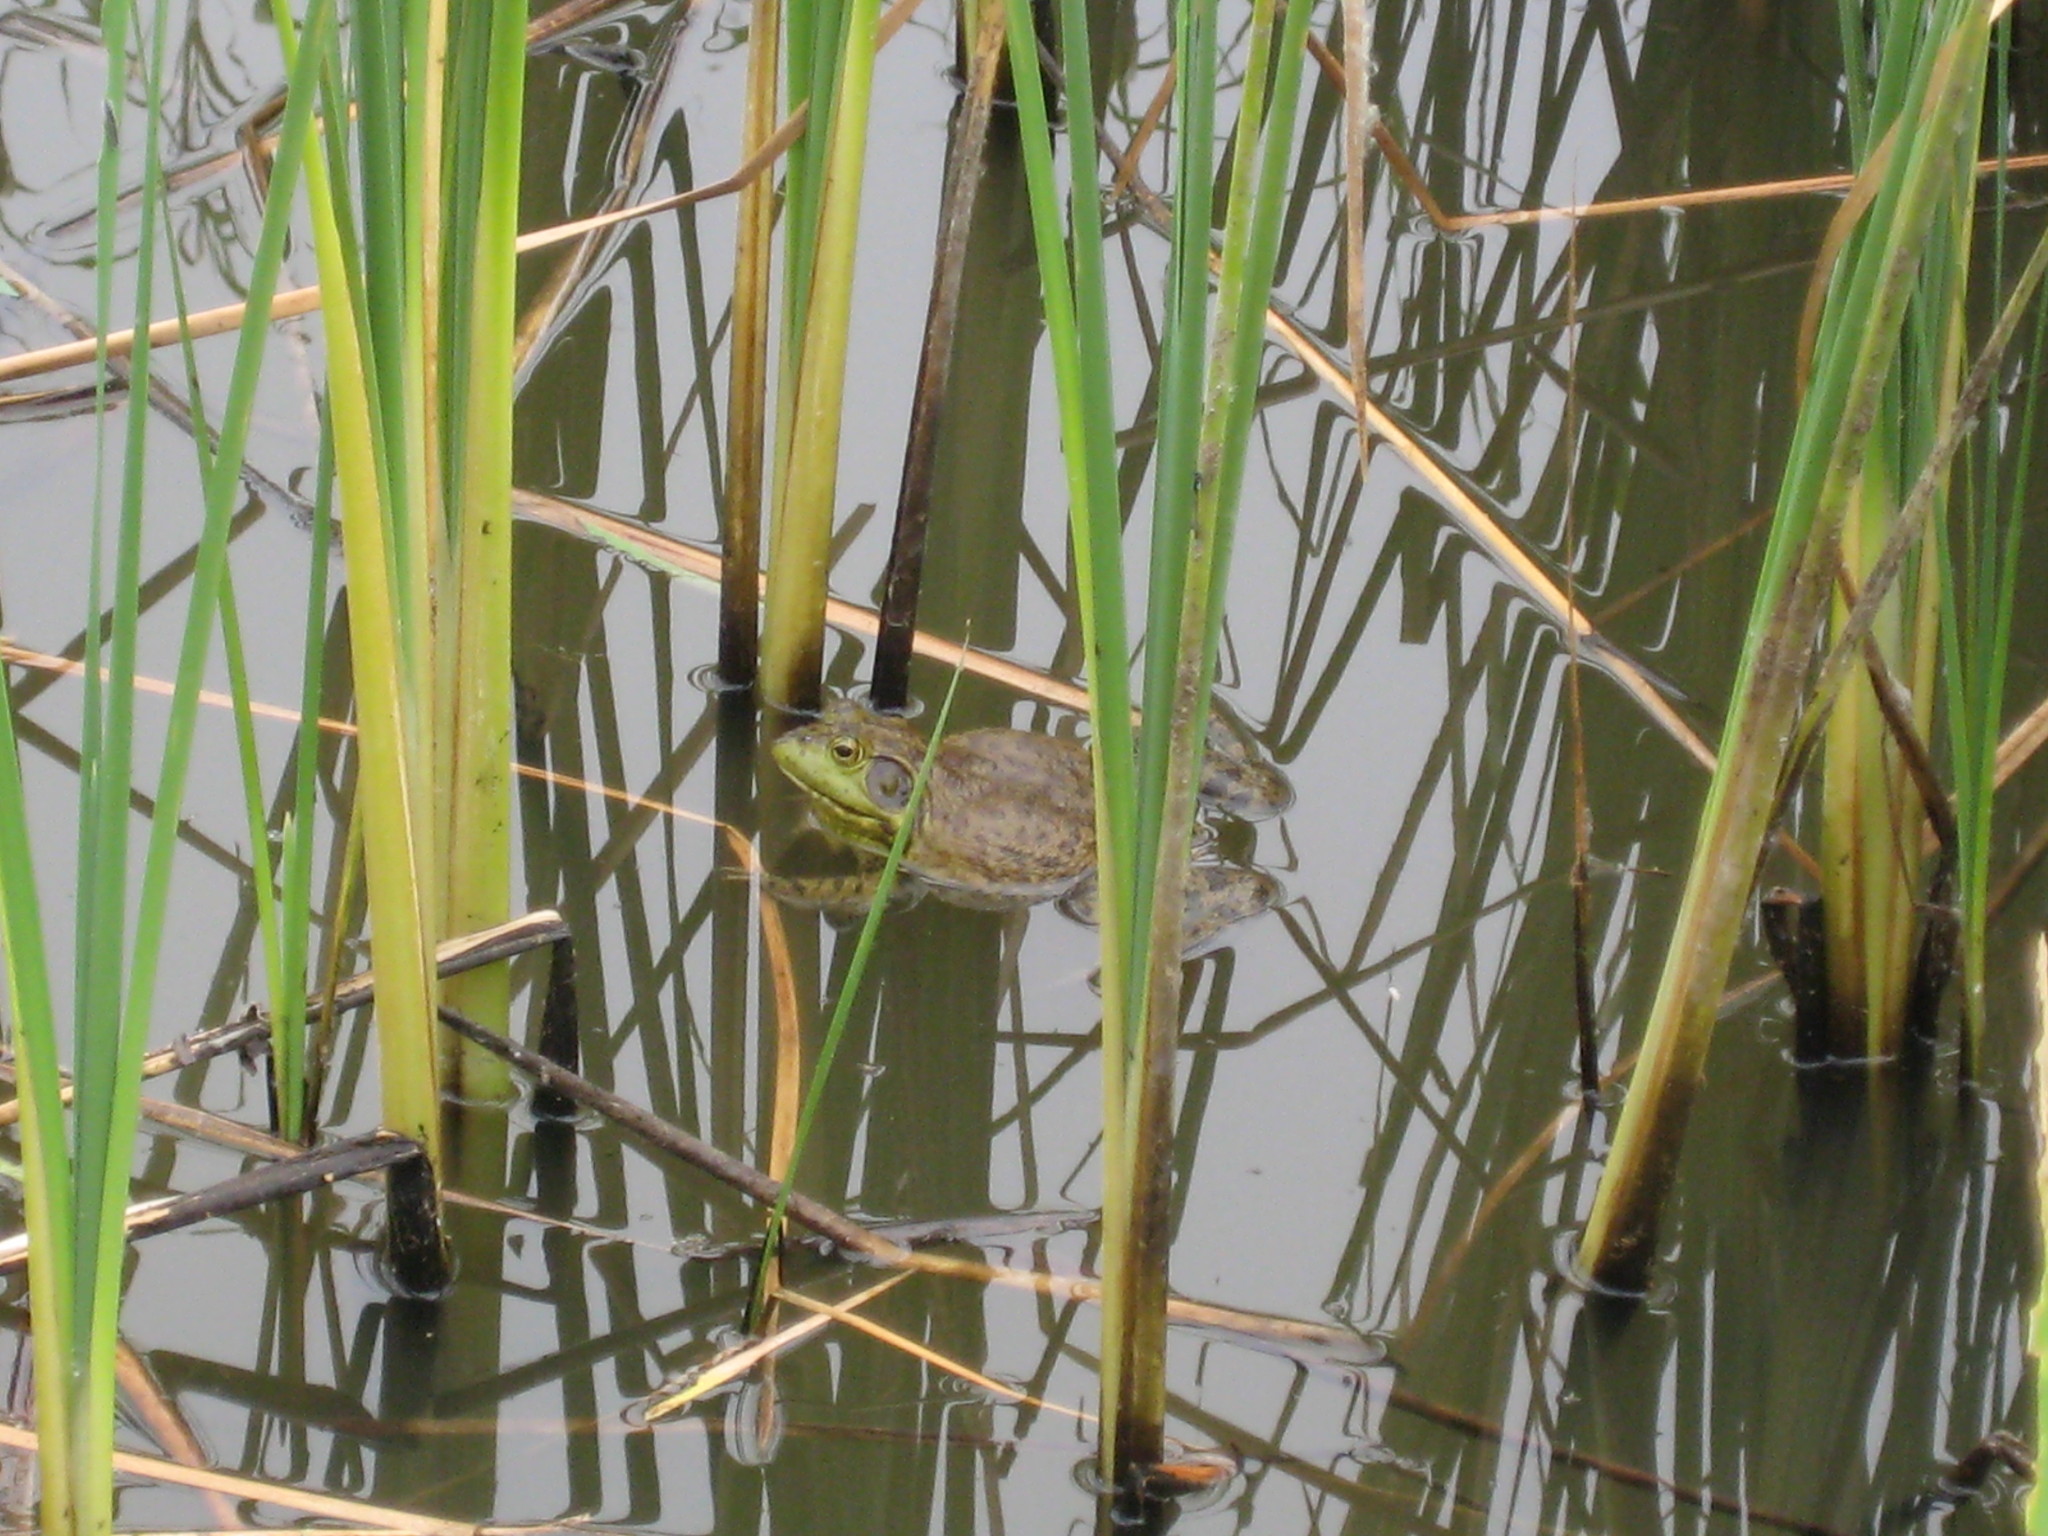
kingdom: Animalia
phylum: Chordata
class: Amphibia
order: Anura
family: Ranidae
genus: Lithobates
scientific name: Lithobates catesbeianus
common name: American bullfrog
